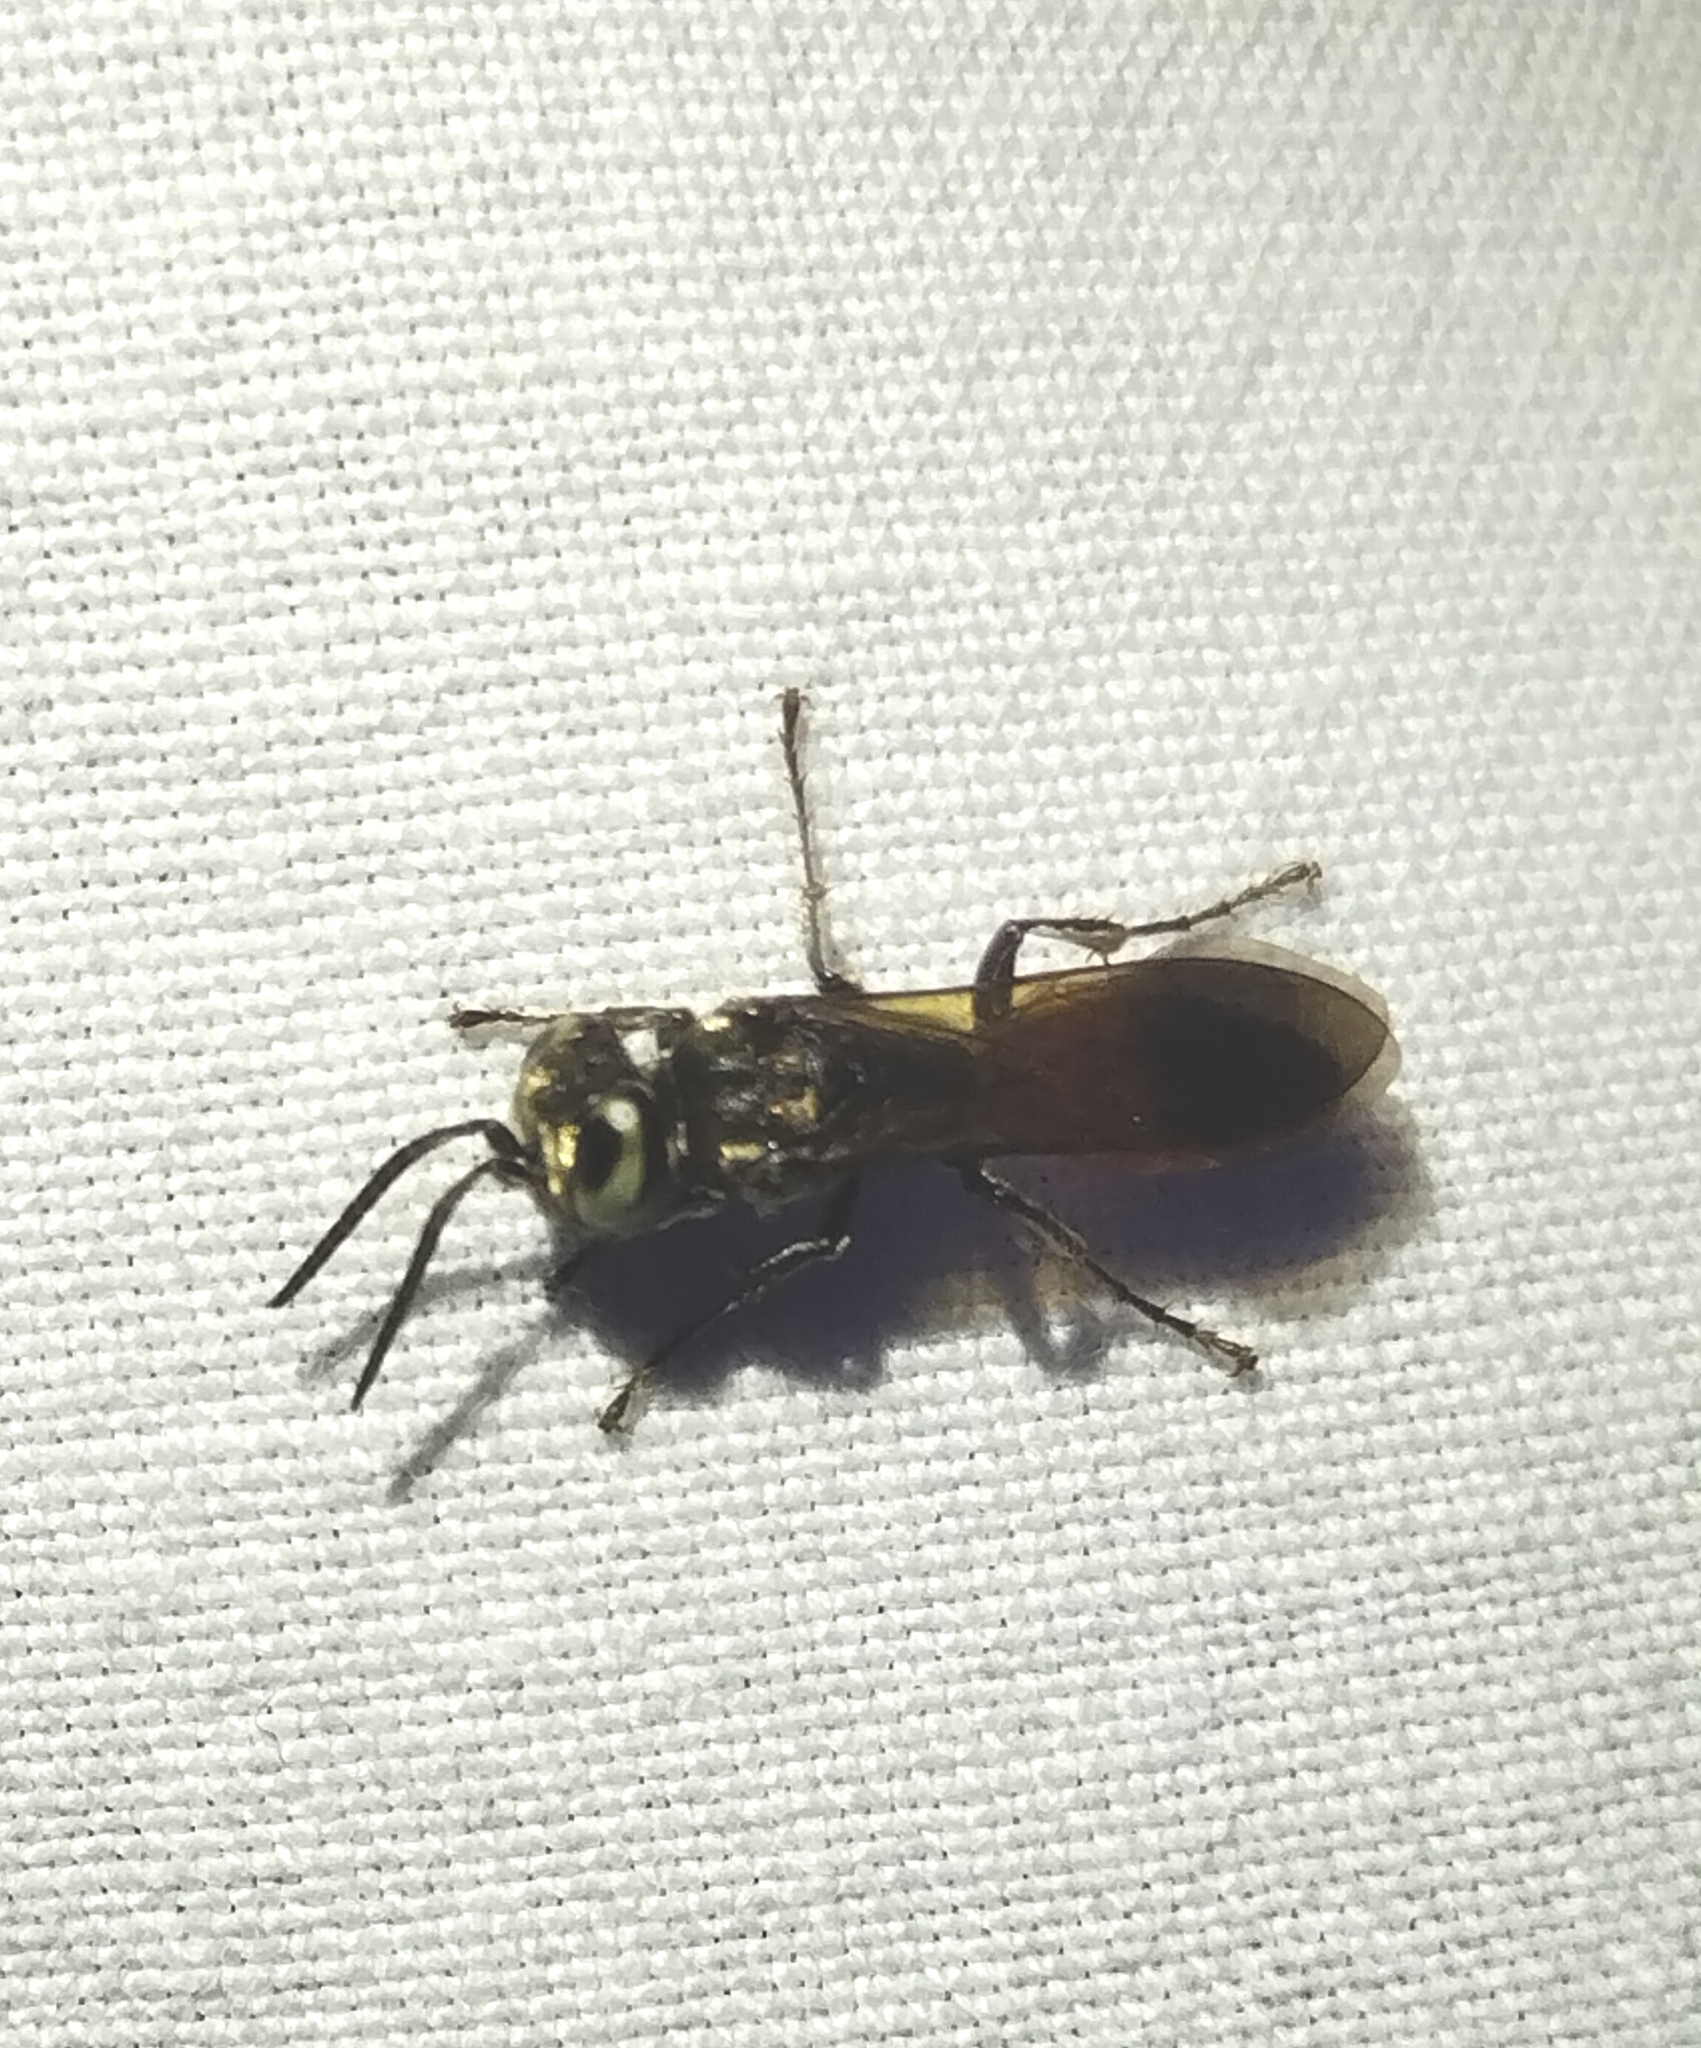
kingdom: Animalia
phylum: Arthropoda
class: Insecta
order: Hymenoptera
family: Crabronidae
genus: Larra
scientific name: Larra bicolor
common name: Wasp
